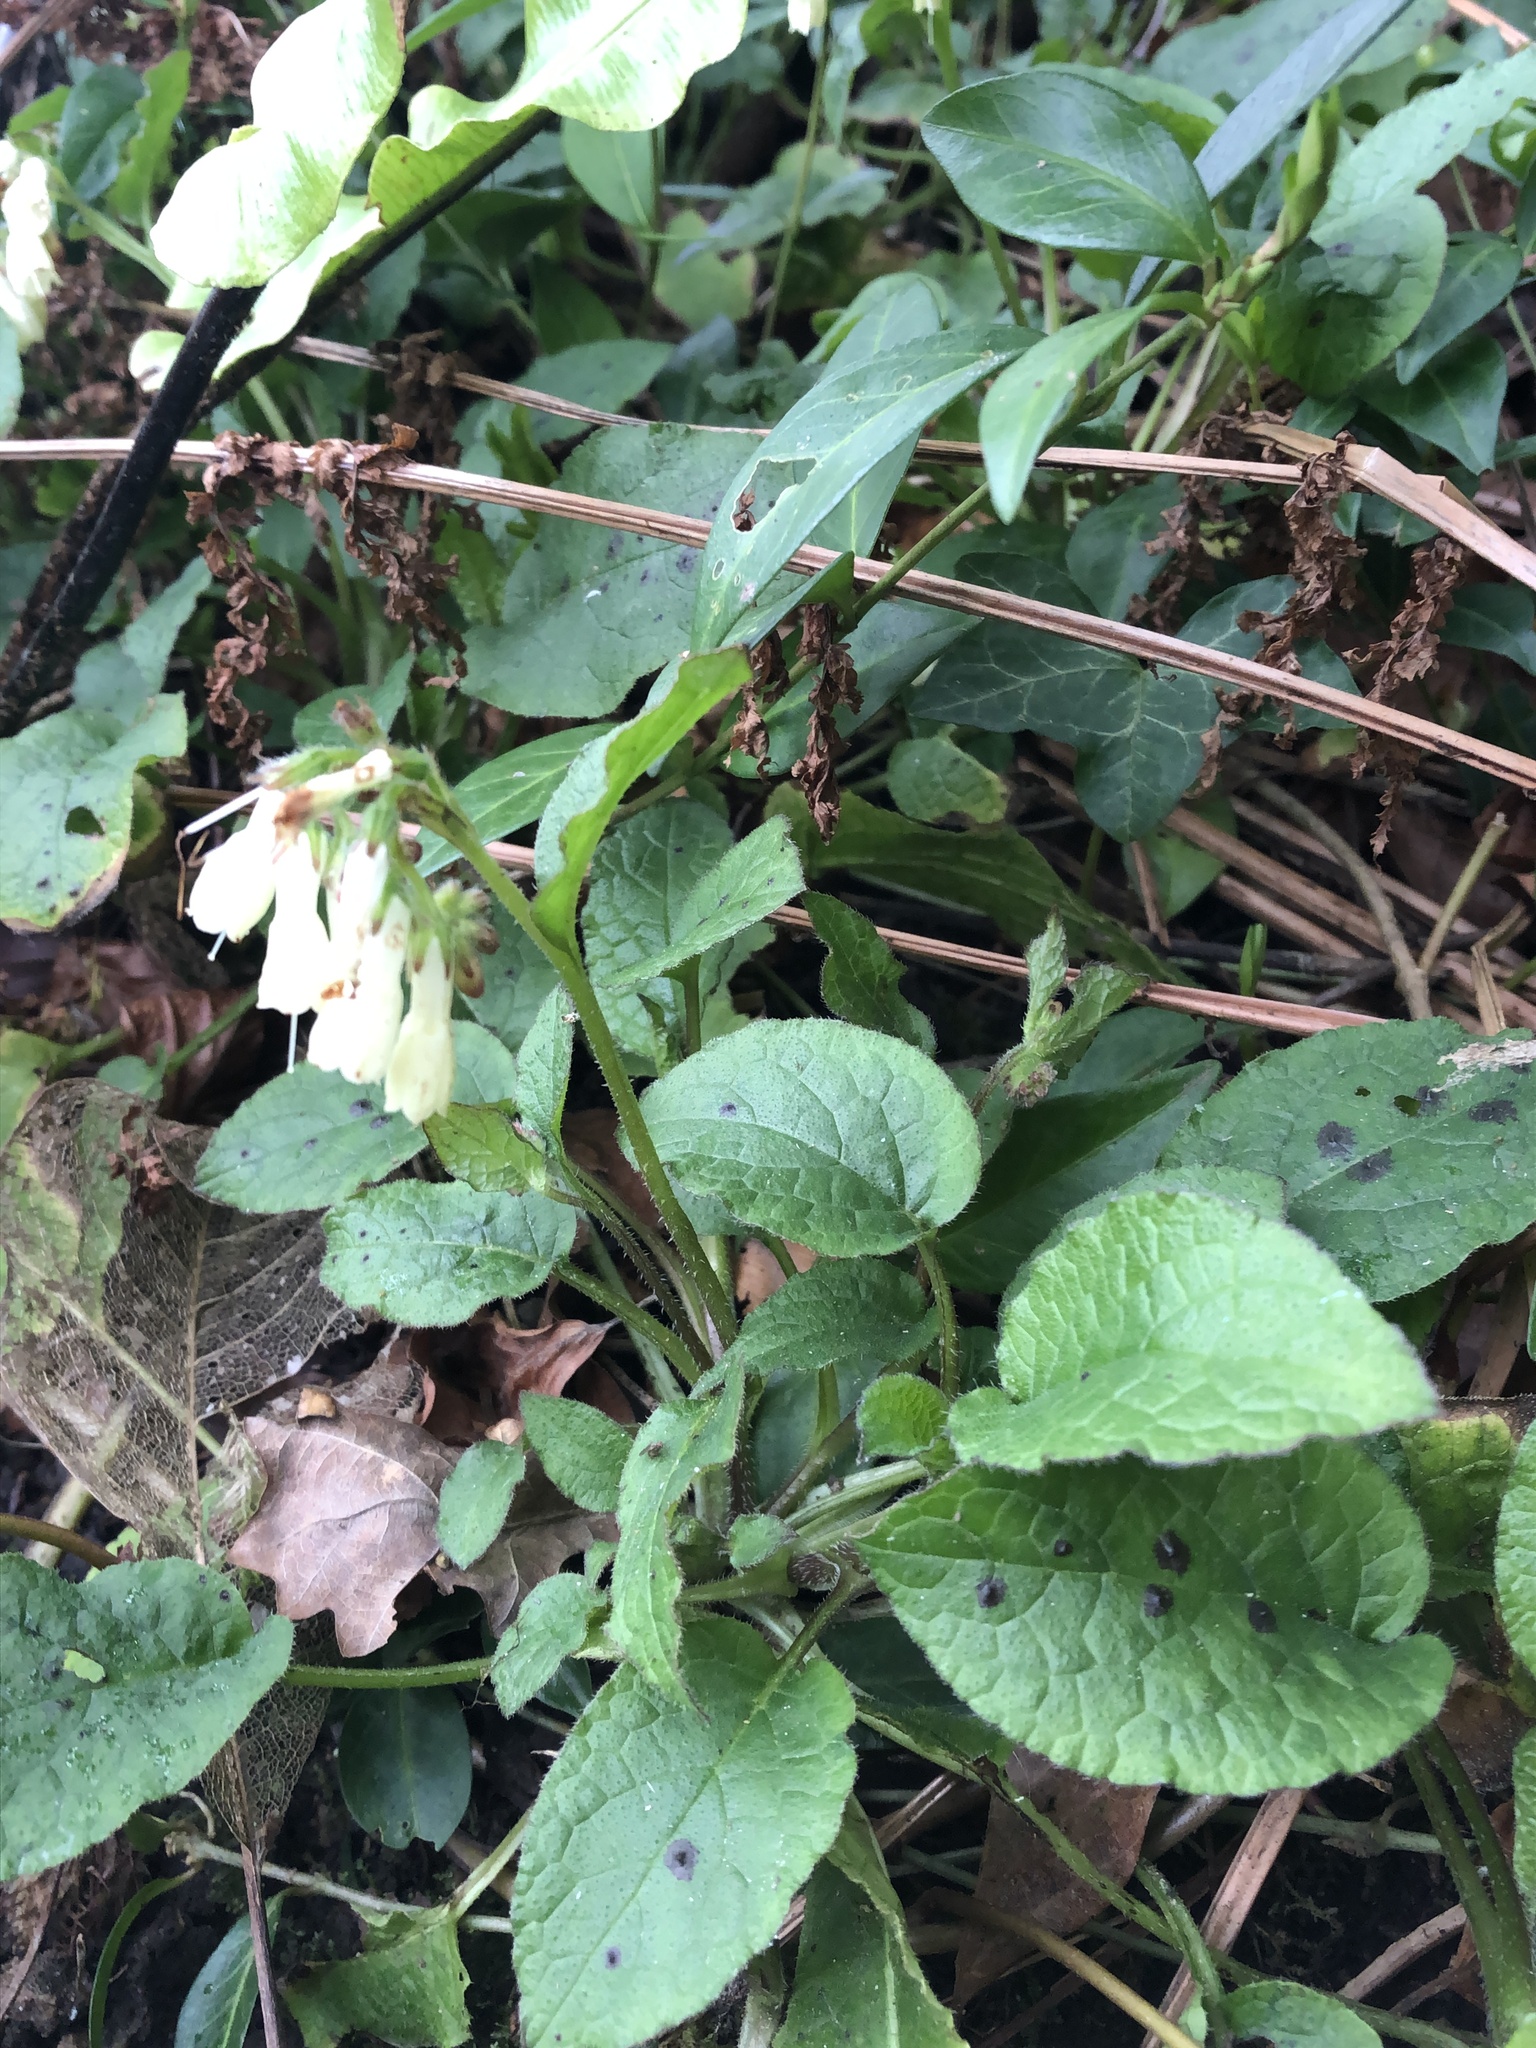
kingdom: Plantae
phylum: Tracheophyta
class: Magnoliopsida
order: Boraginales
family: Boraginaceae
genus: Symphytum
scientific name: Symphytum grandiflorum
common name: Creeping comfrey
